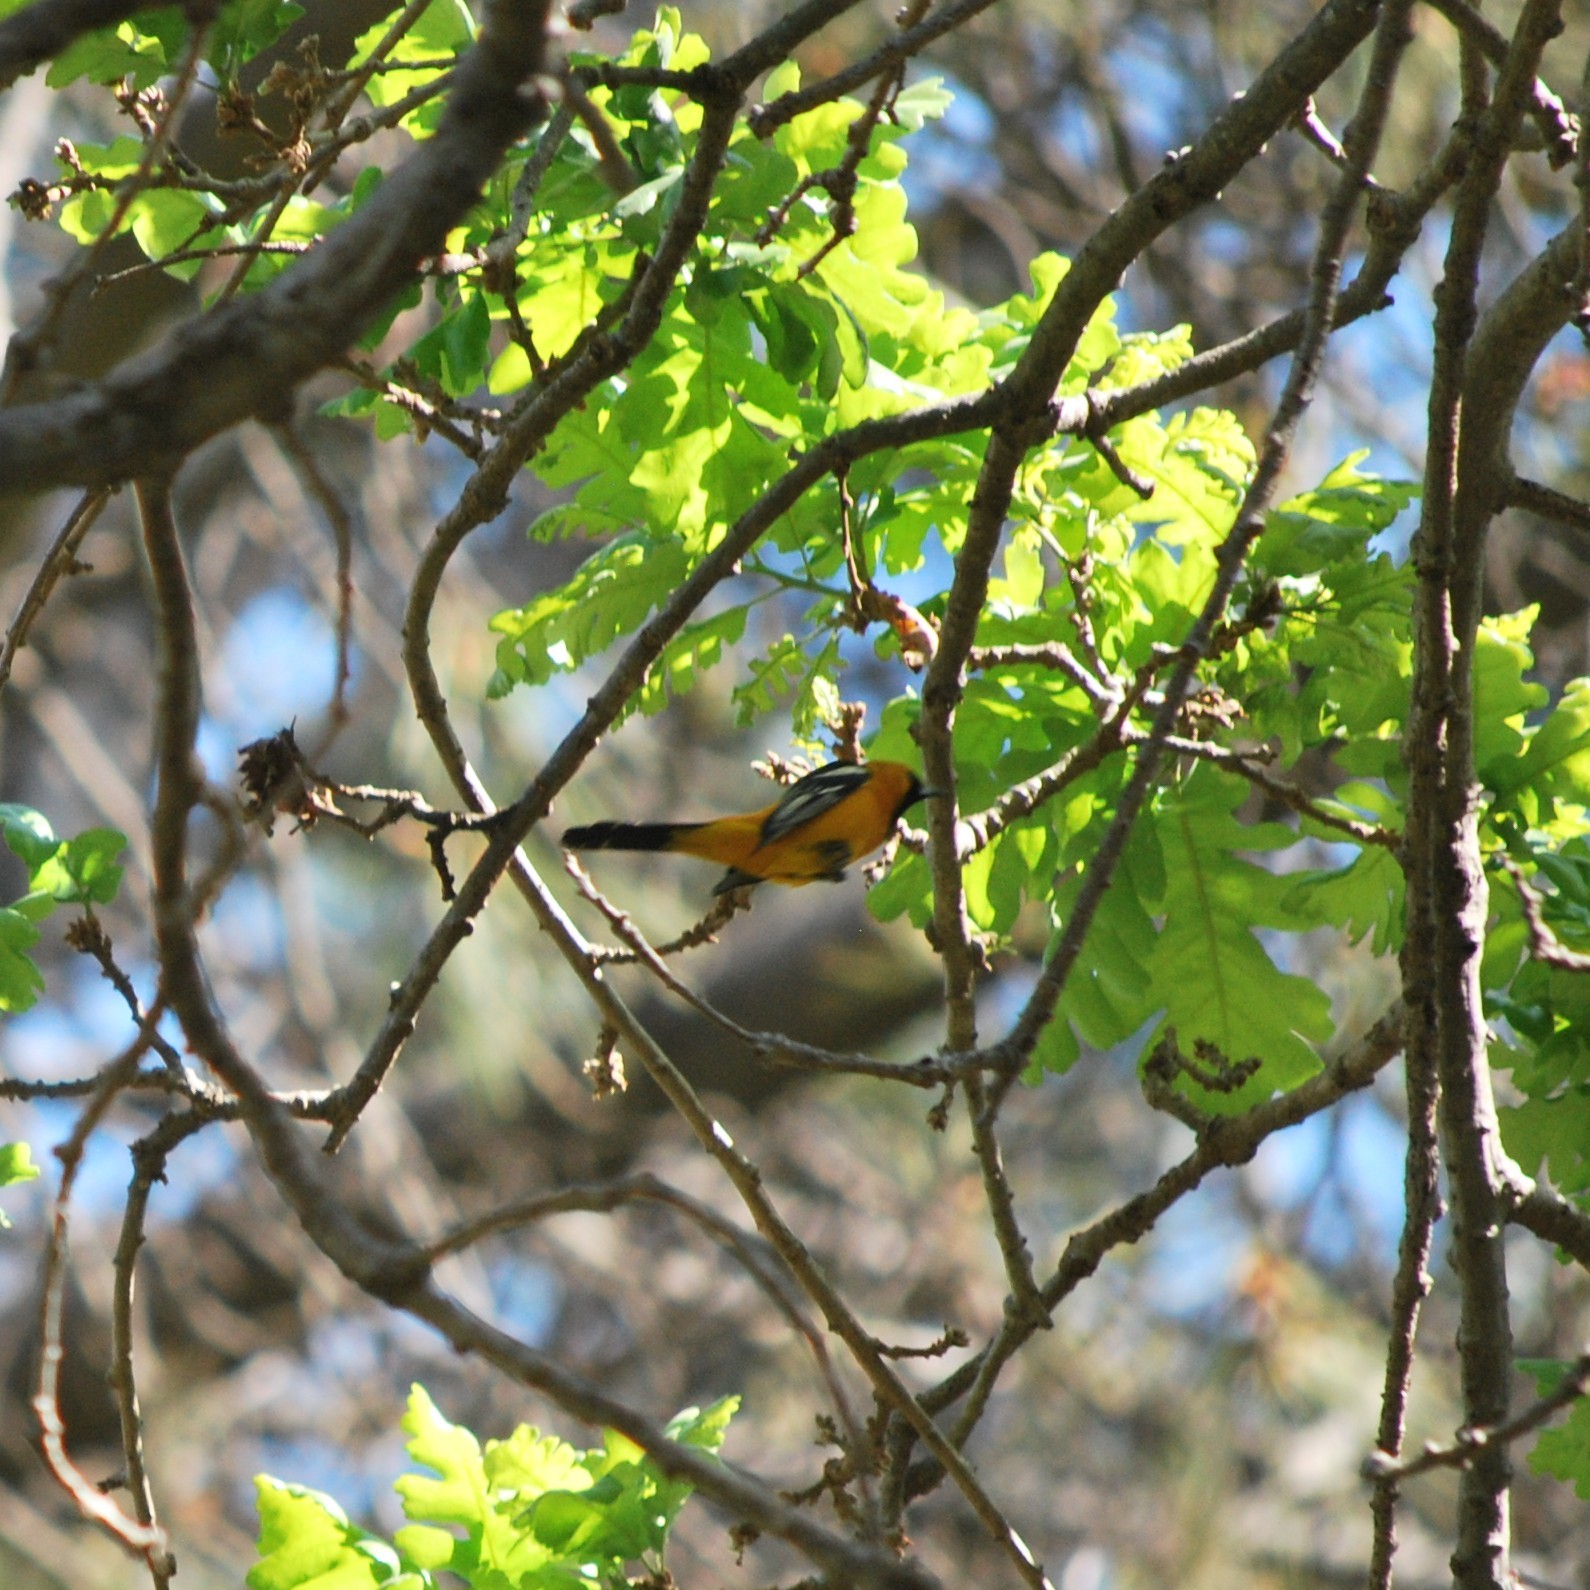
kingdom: Animalia
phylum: Chordata
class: Aves
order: Passeriformes
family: Icteridae
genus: Icterus
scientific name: Icterus cucullatus
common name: Hooded oriole
